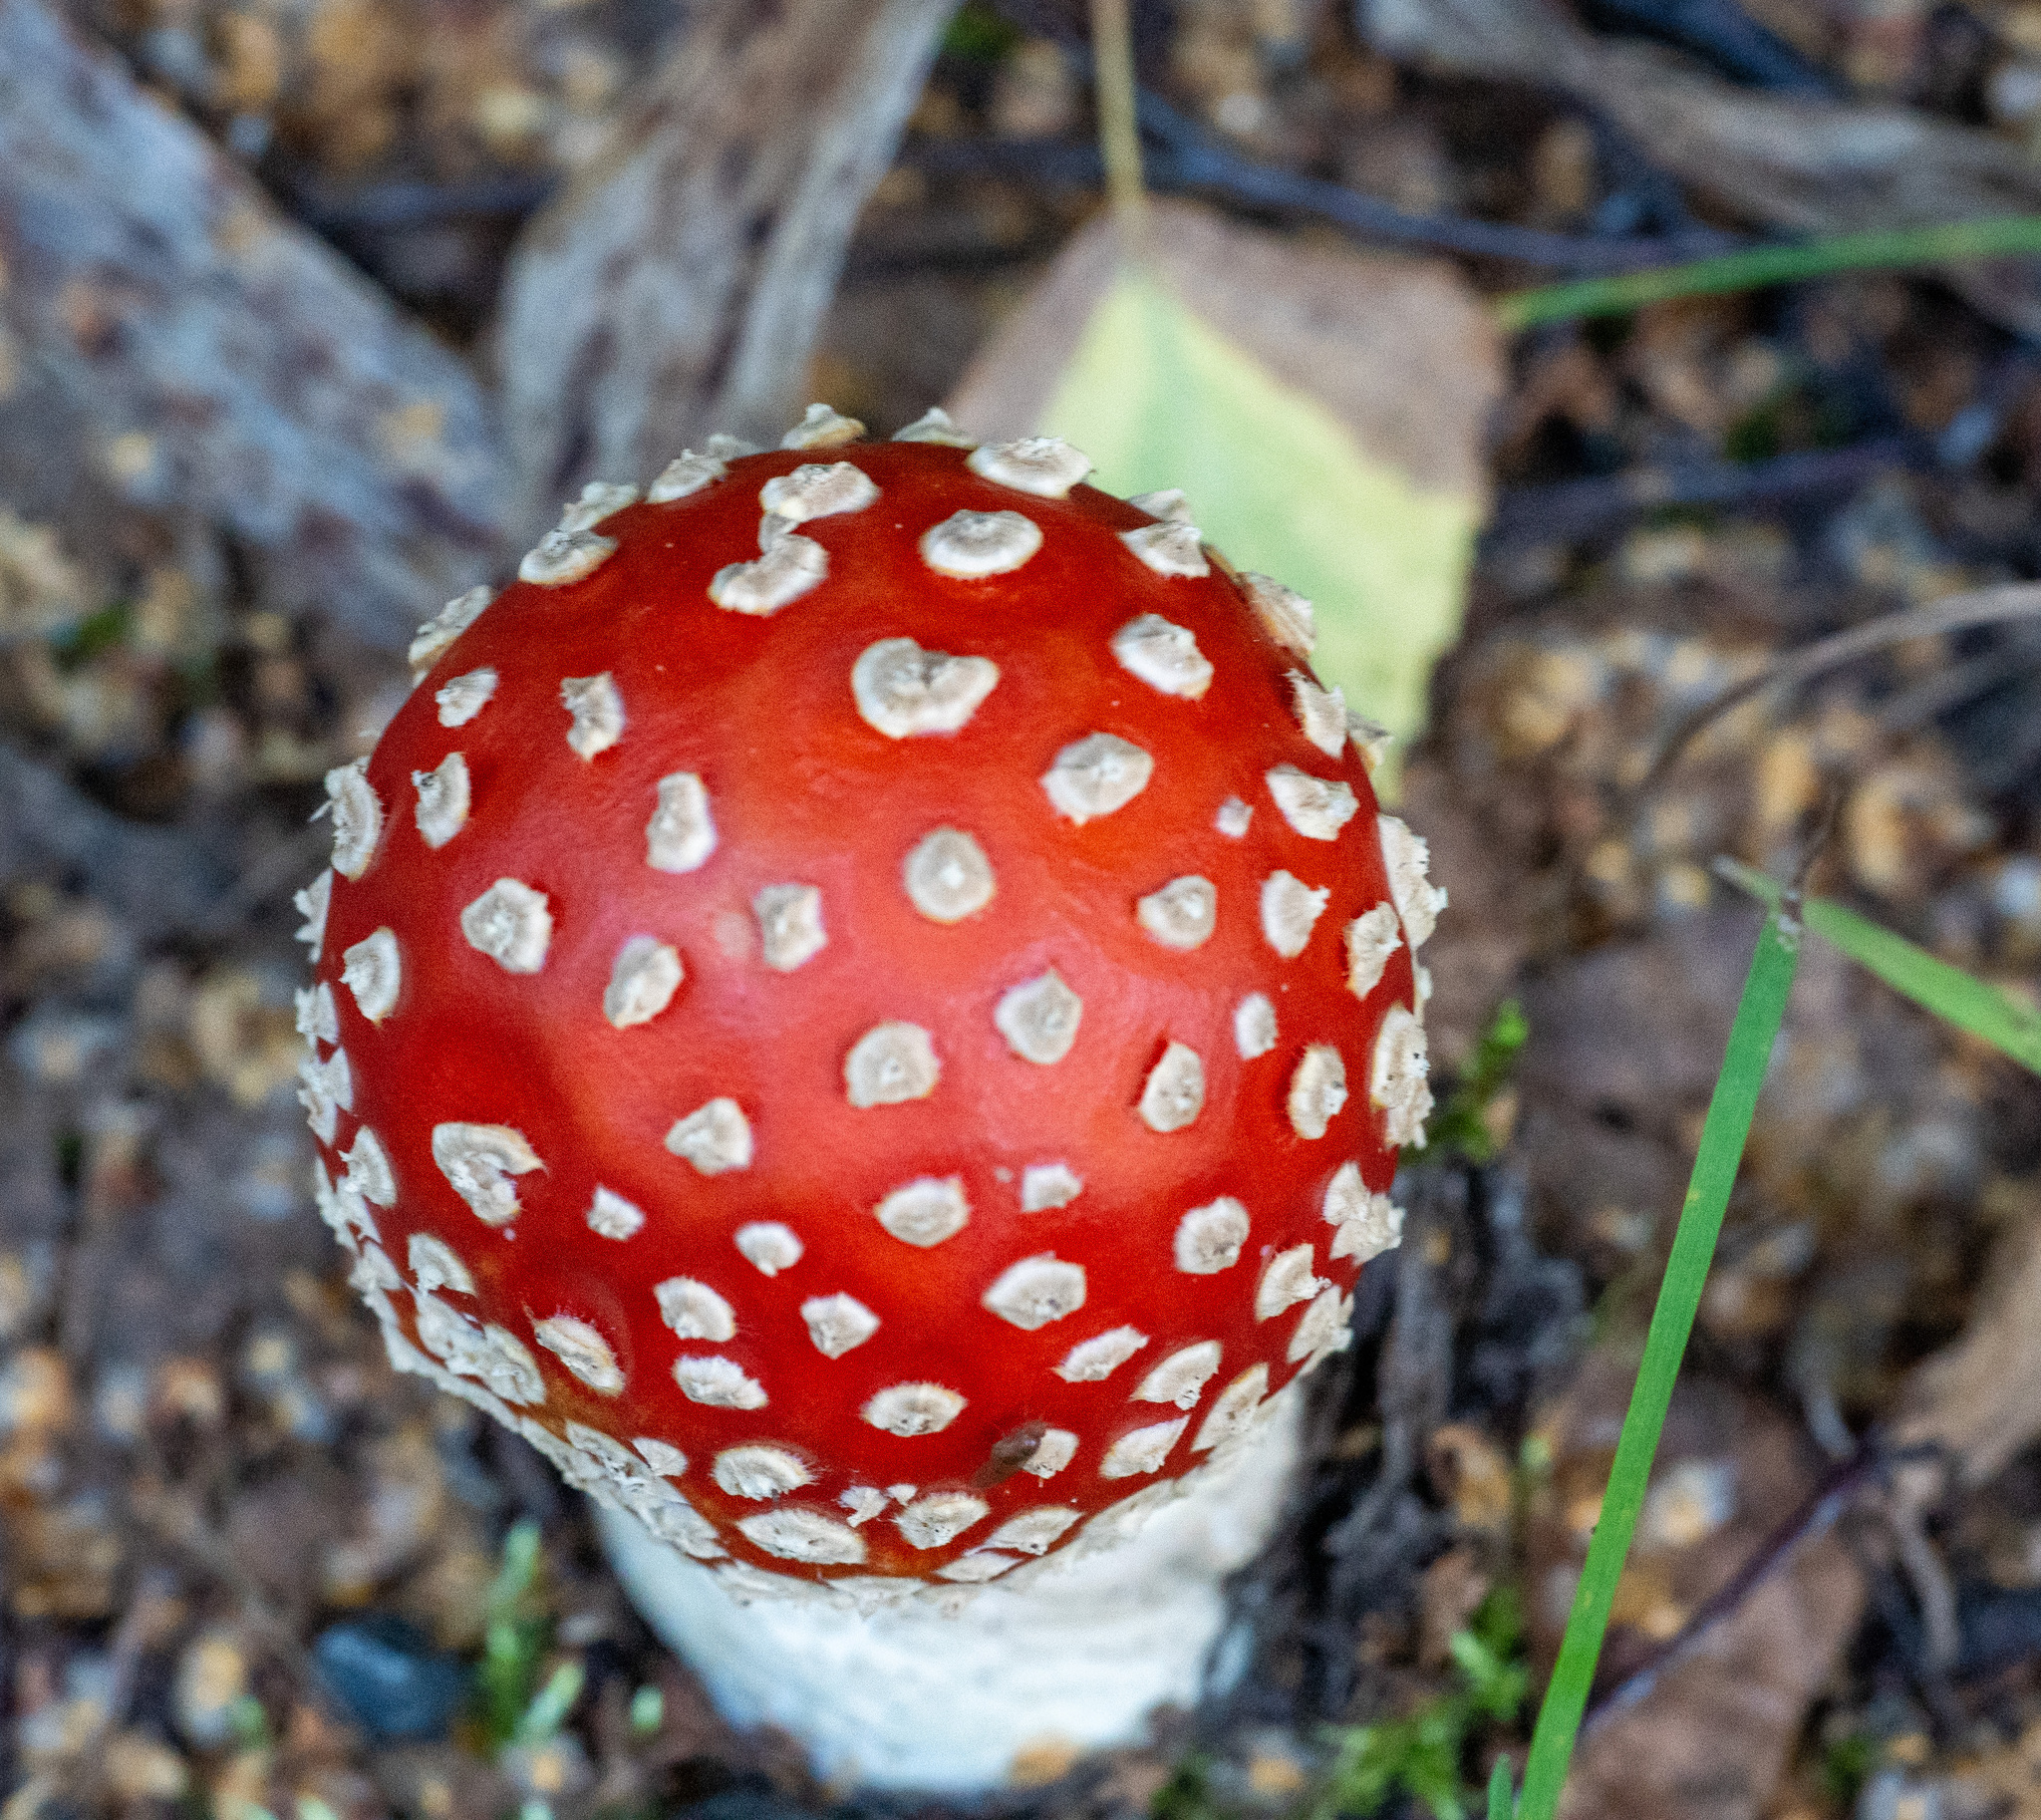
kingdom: Fungi
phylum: Basidiomycota
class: Agaricomycetes
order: Agaricales
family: Amanitaceae
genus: Amanita
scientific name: Amanita muscaria
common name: Fly agaric
